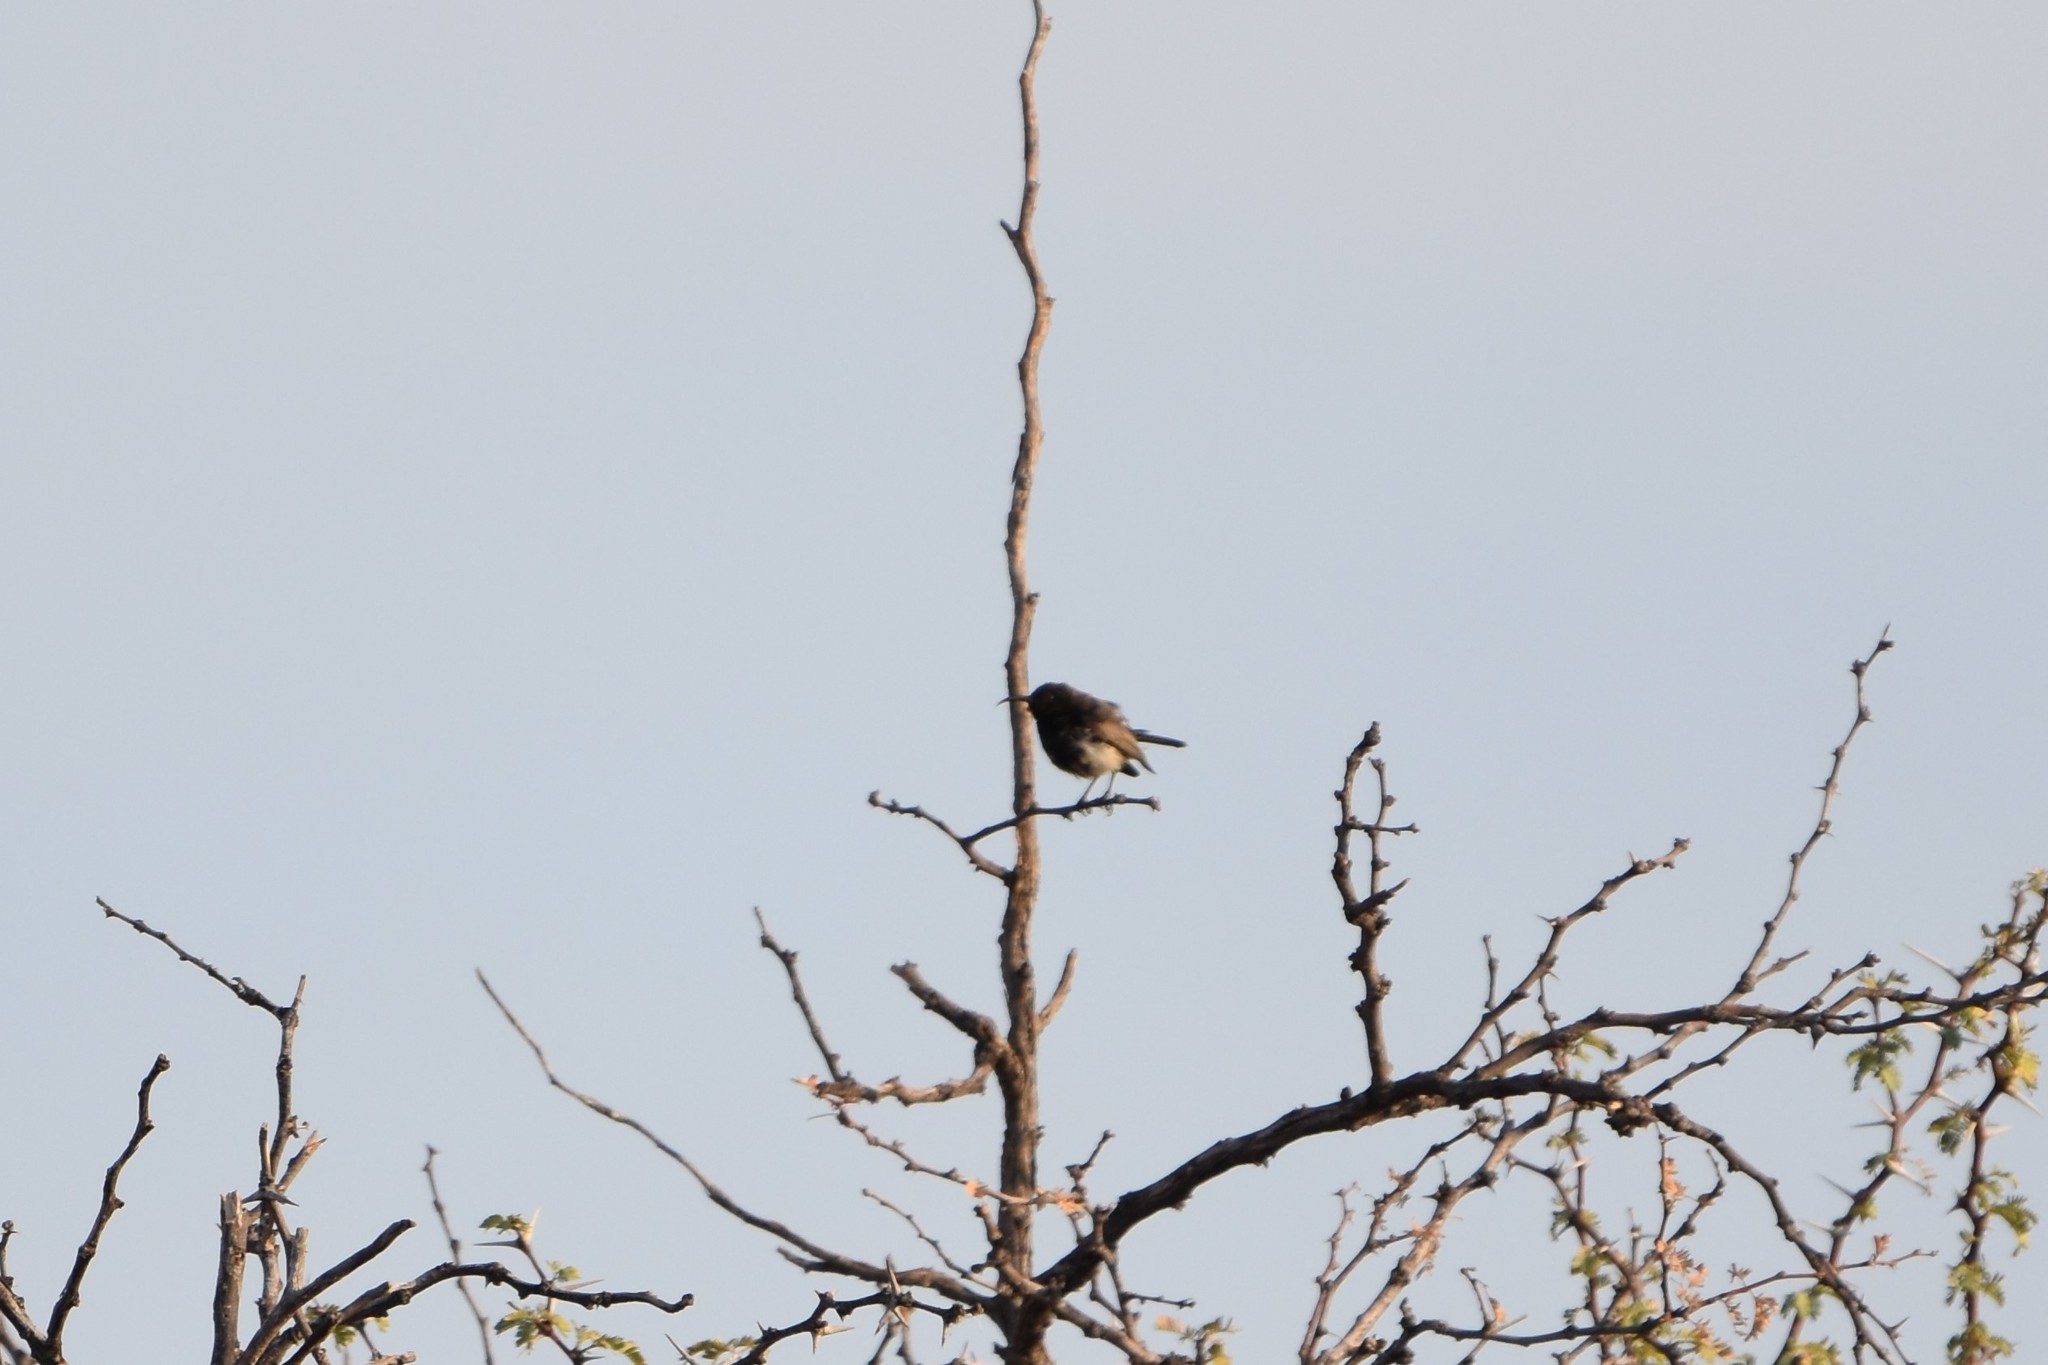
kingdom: Animalia
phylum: Chordata
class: Aves
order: Passeriformes
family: Nectariniidae
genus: Cinnyris
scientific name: Cinnyris fuscus
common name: Dusky sunbird
